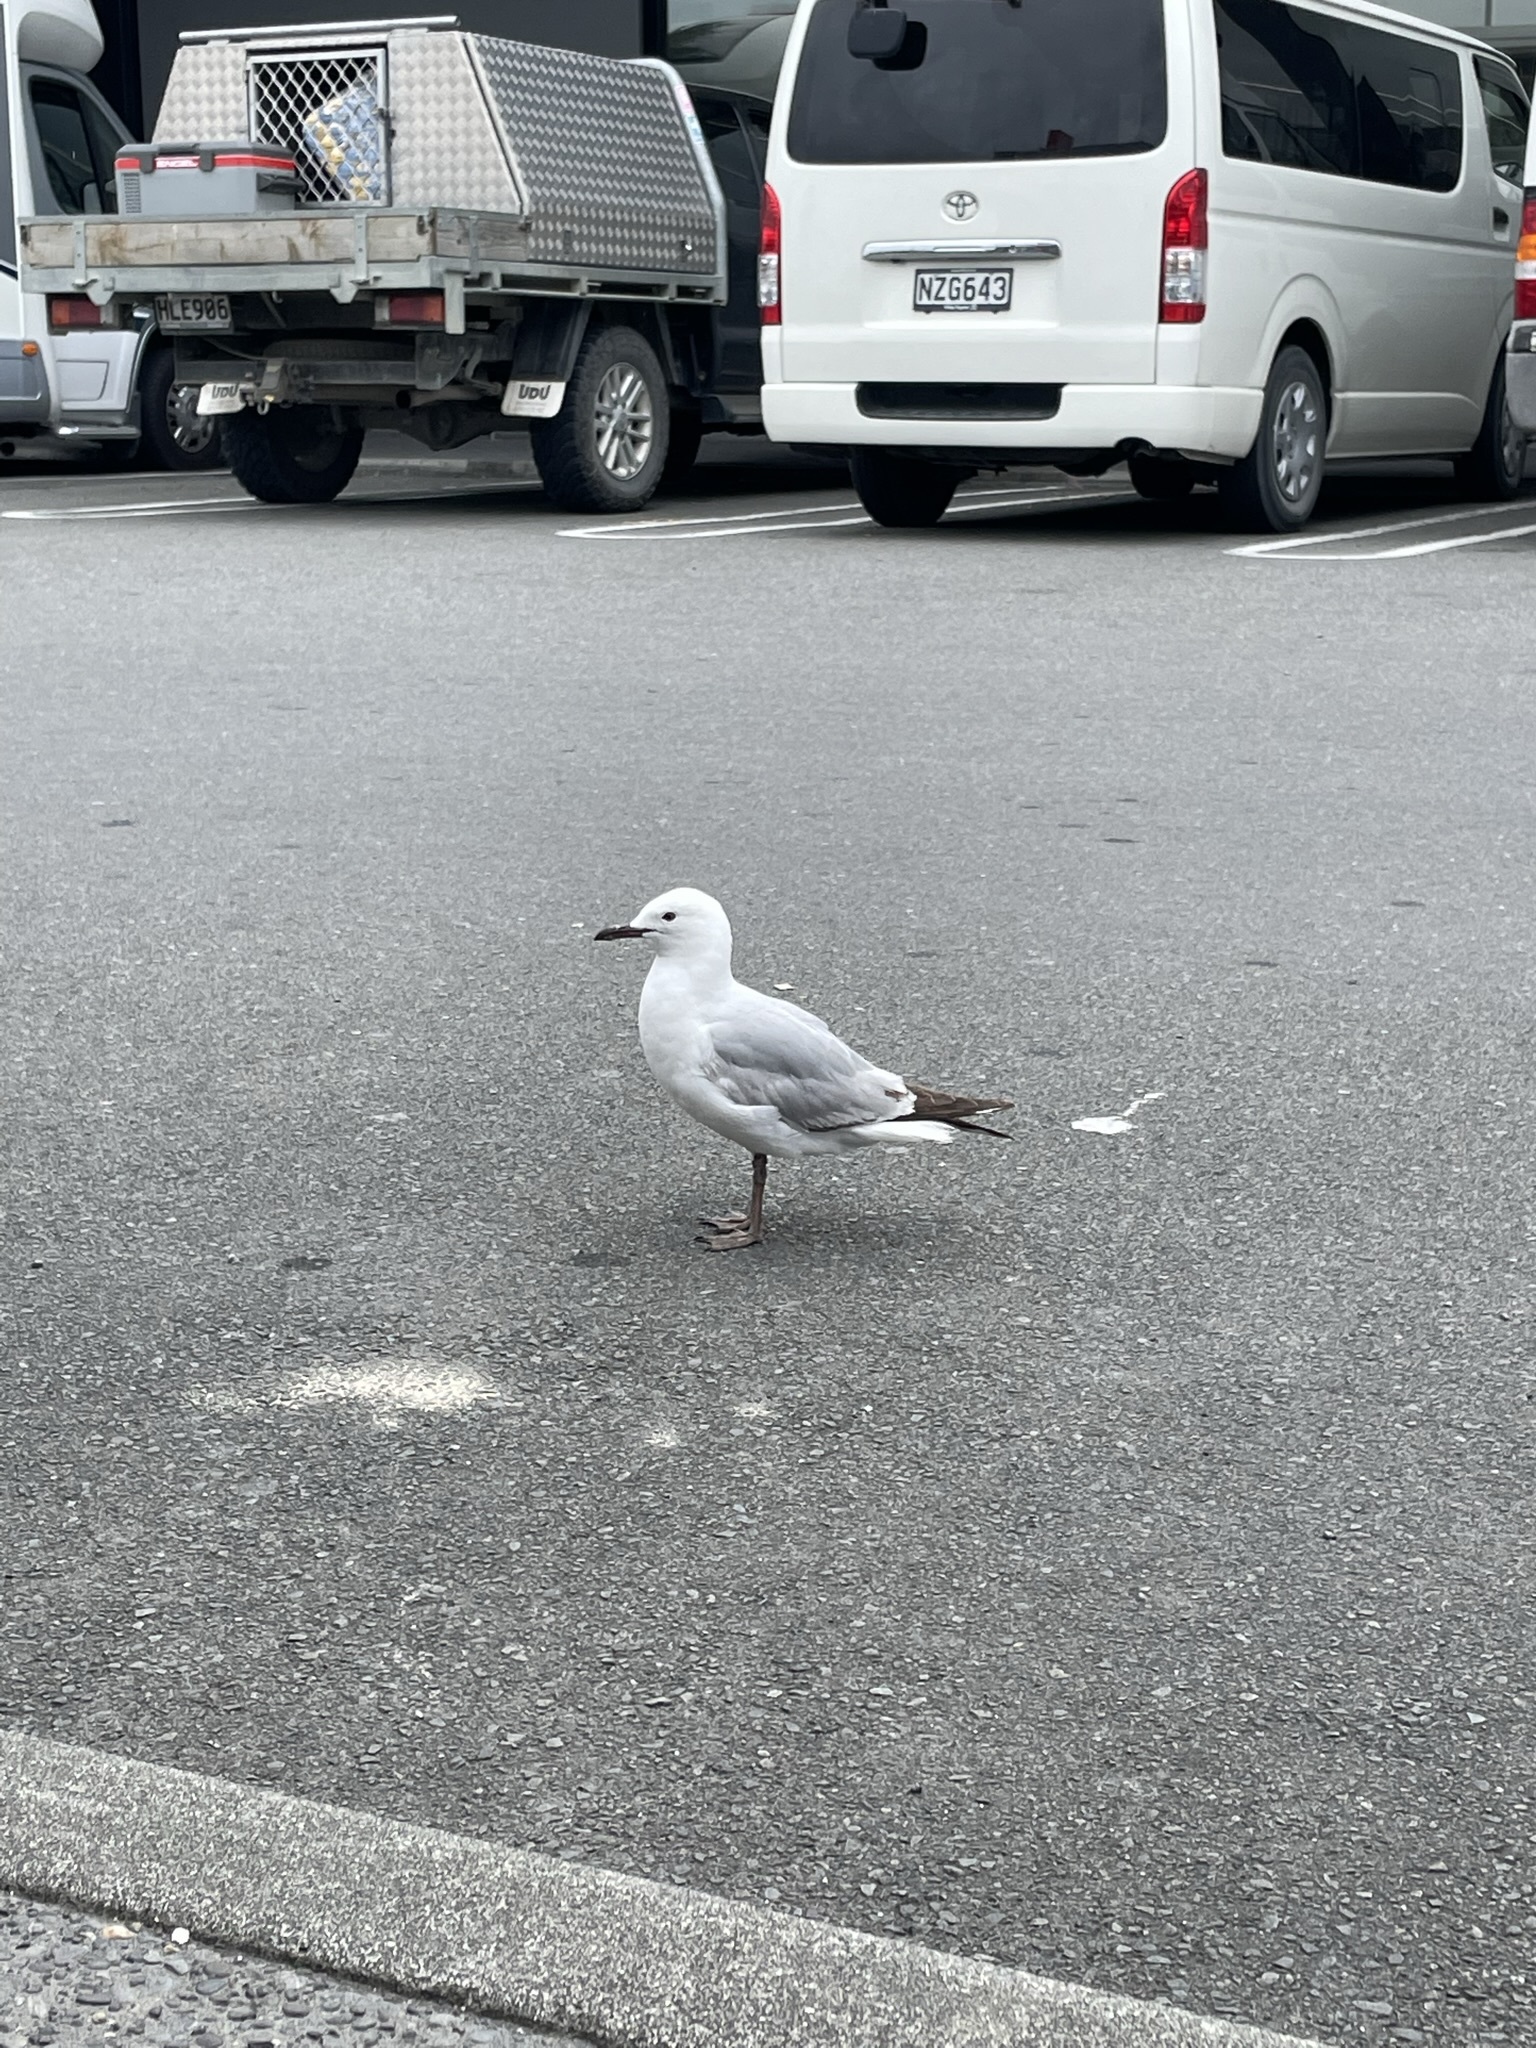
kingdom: Animalia
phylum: Chordata
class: Aves
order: Charadriiformes
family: Laridae
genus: Chroicocephalus
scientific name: Chroicocephalus novaehollandiae
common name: Silver gull
